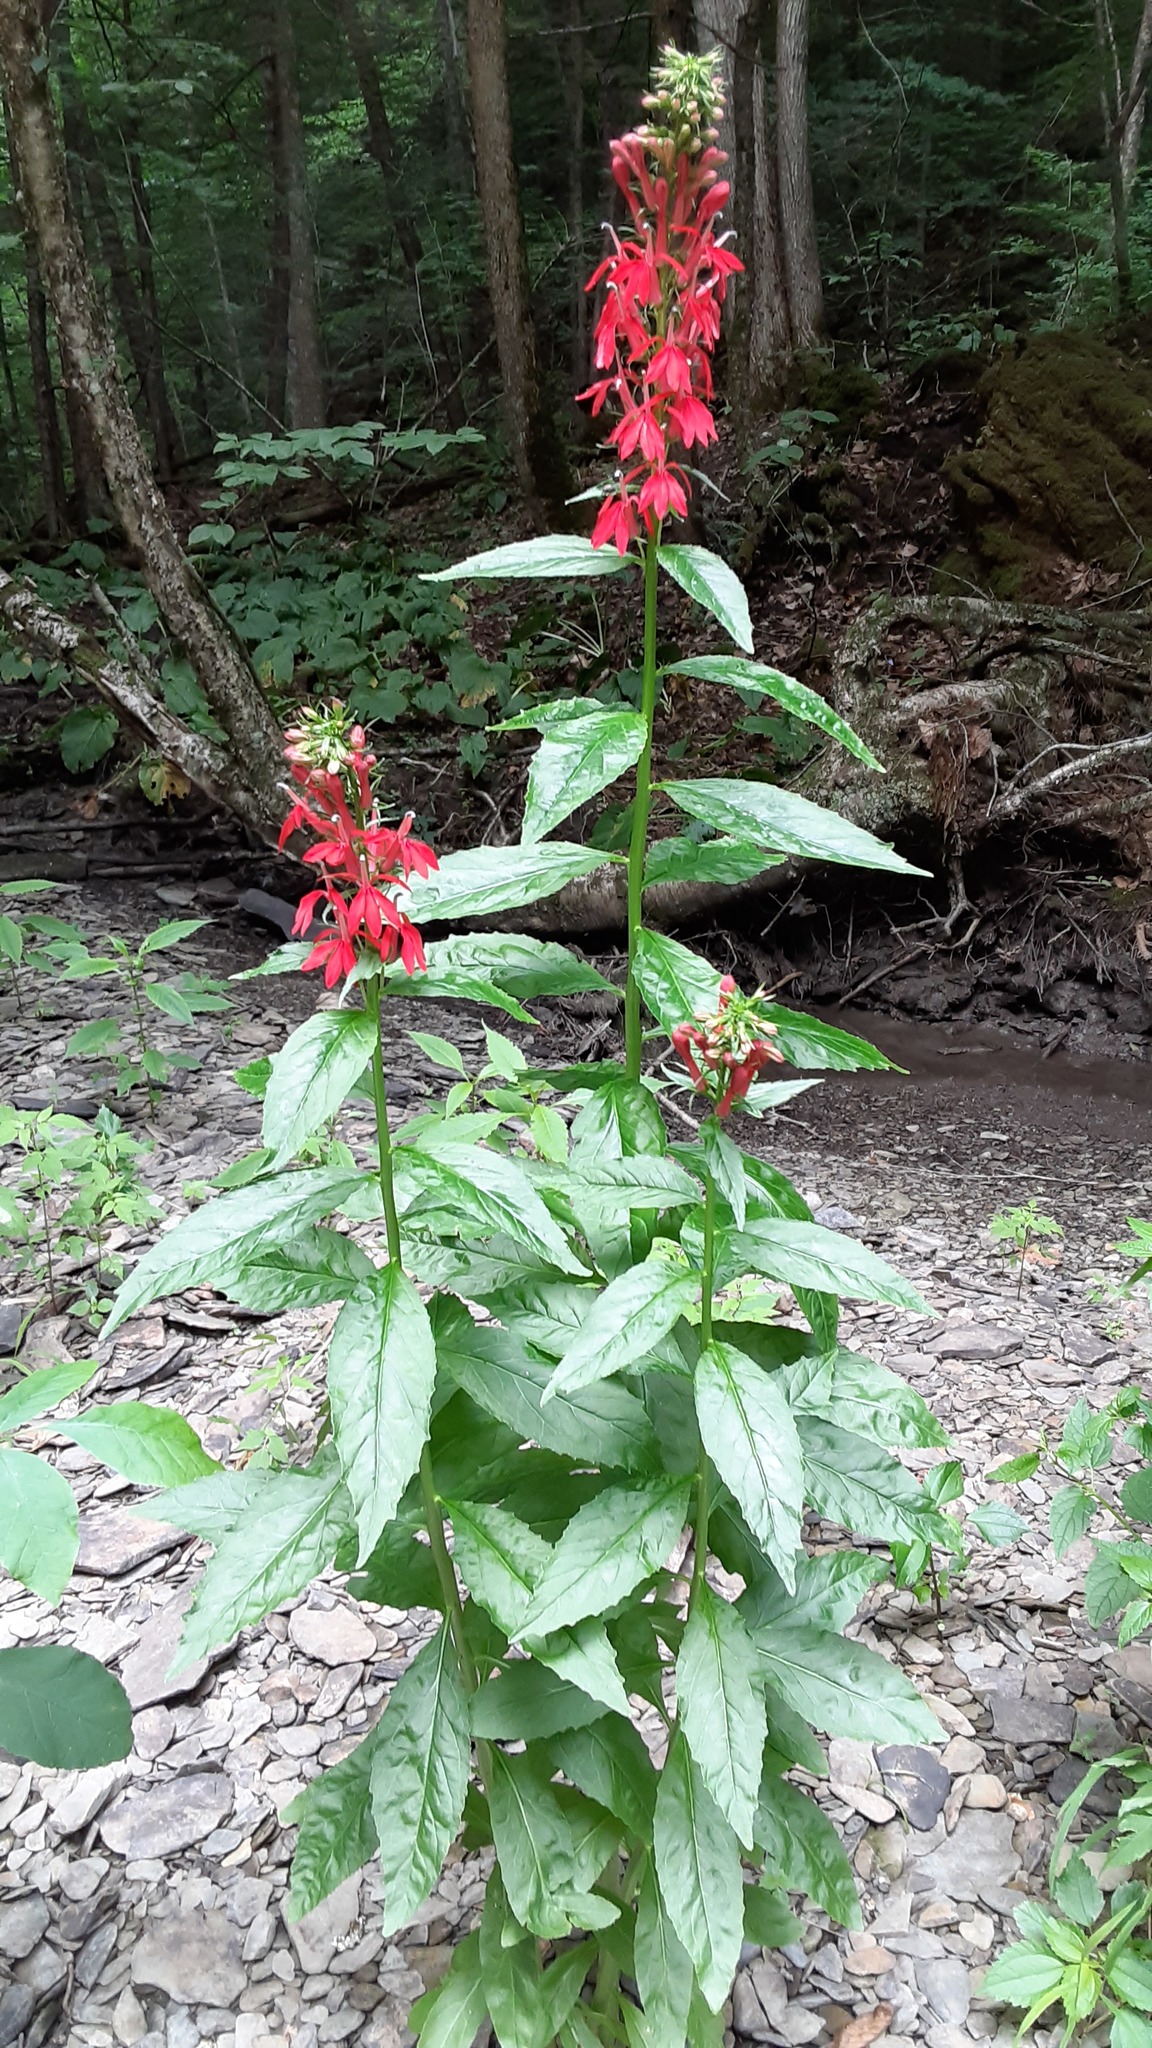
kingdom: Plantae
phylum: Tracheophyta
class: Magnoliopsida
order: Asterales
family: Campanulaceae
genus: Lobelia
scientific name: Lobelia cardinalis
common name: Cardinal flower
